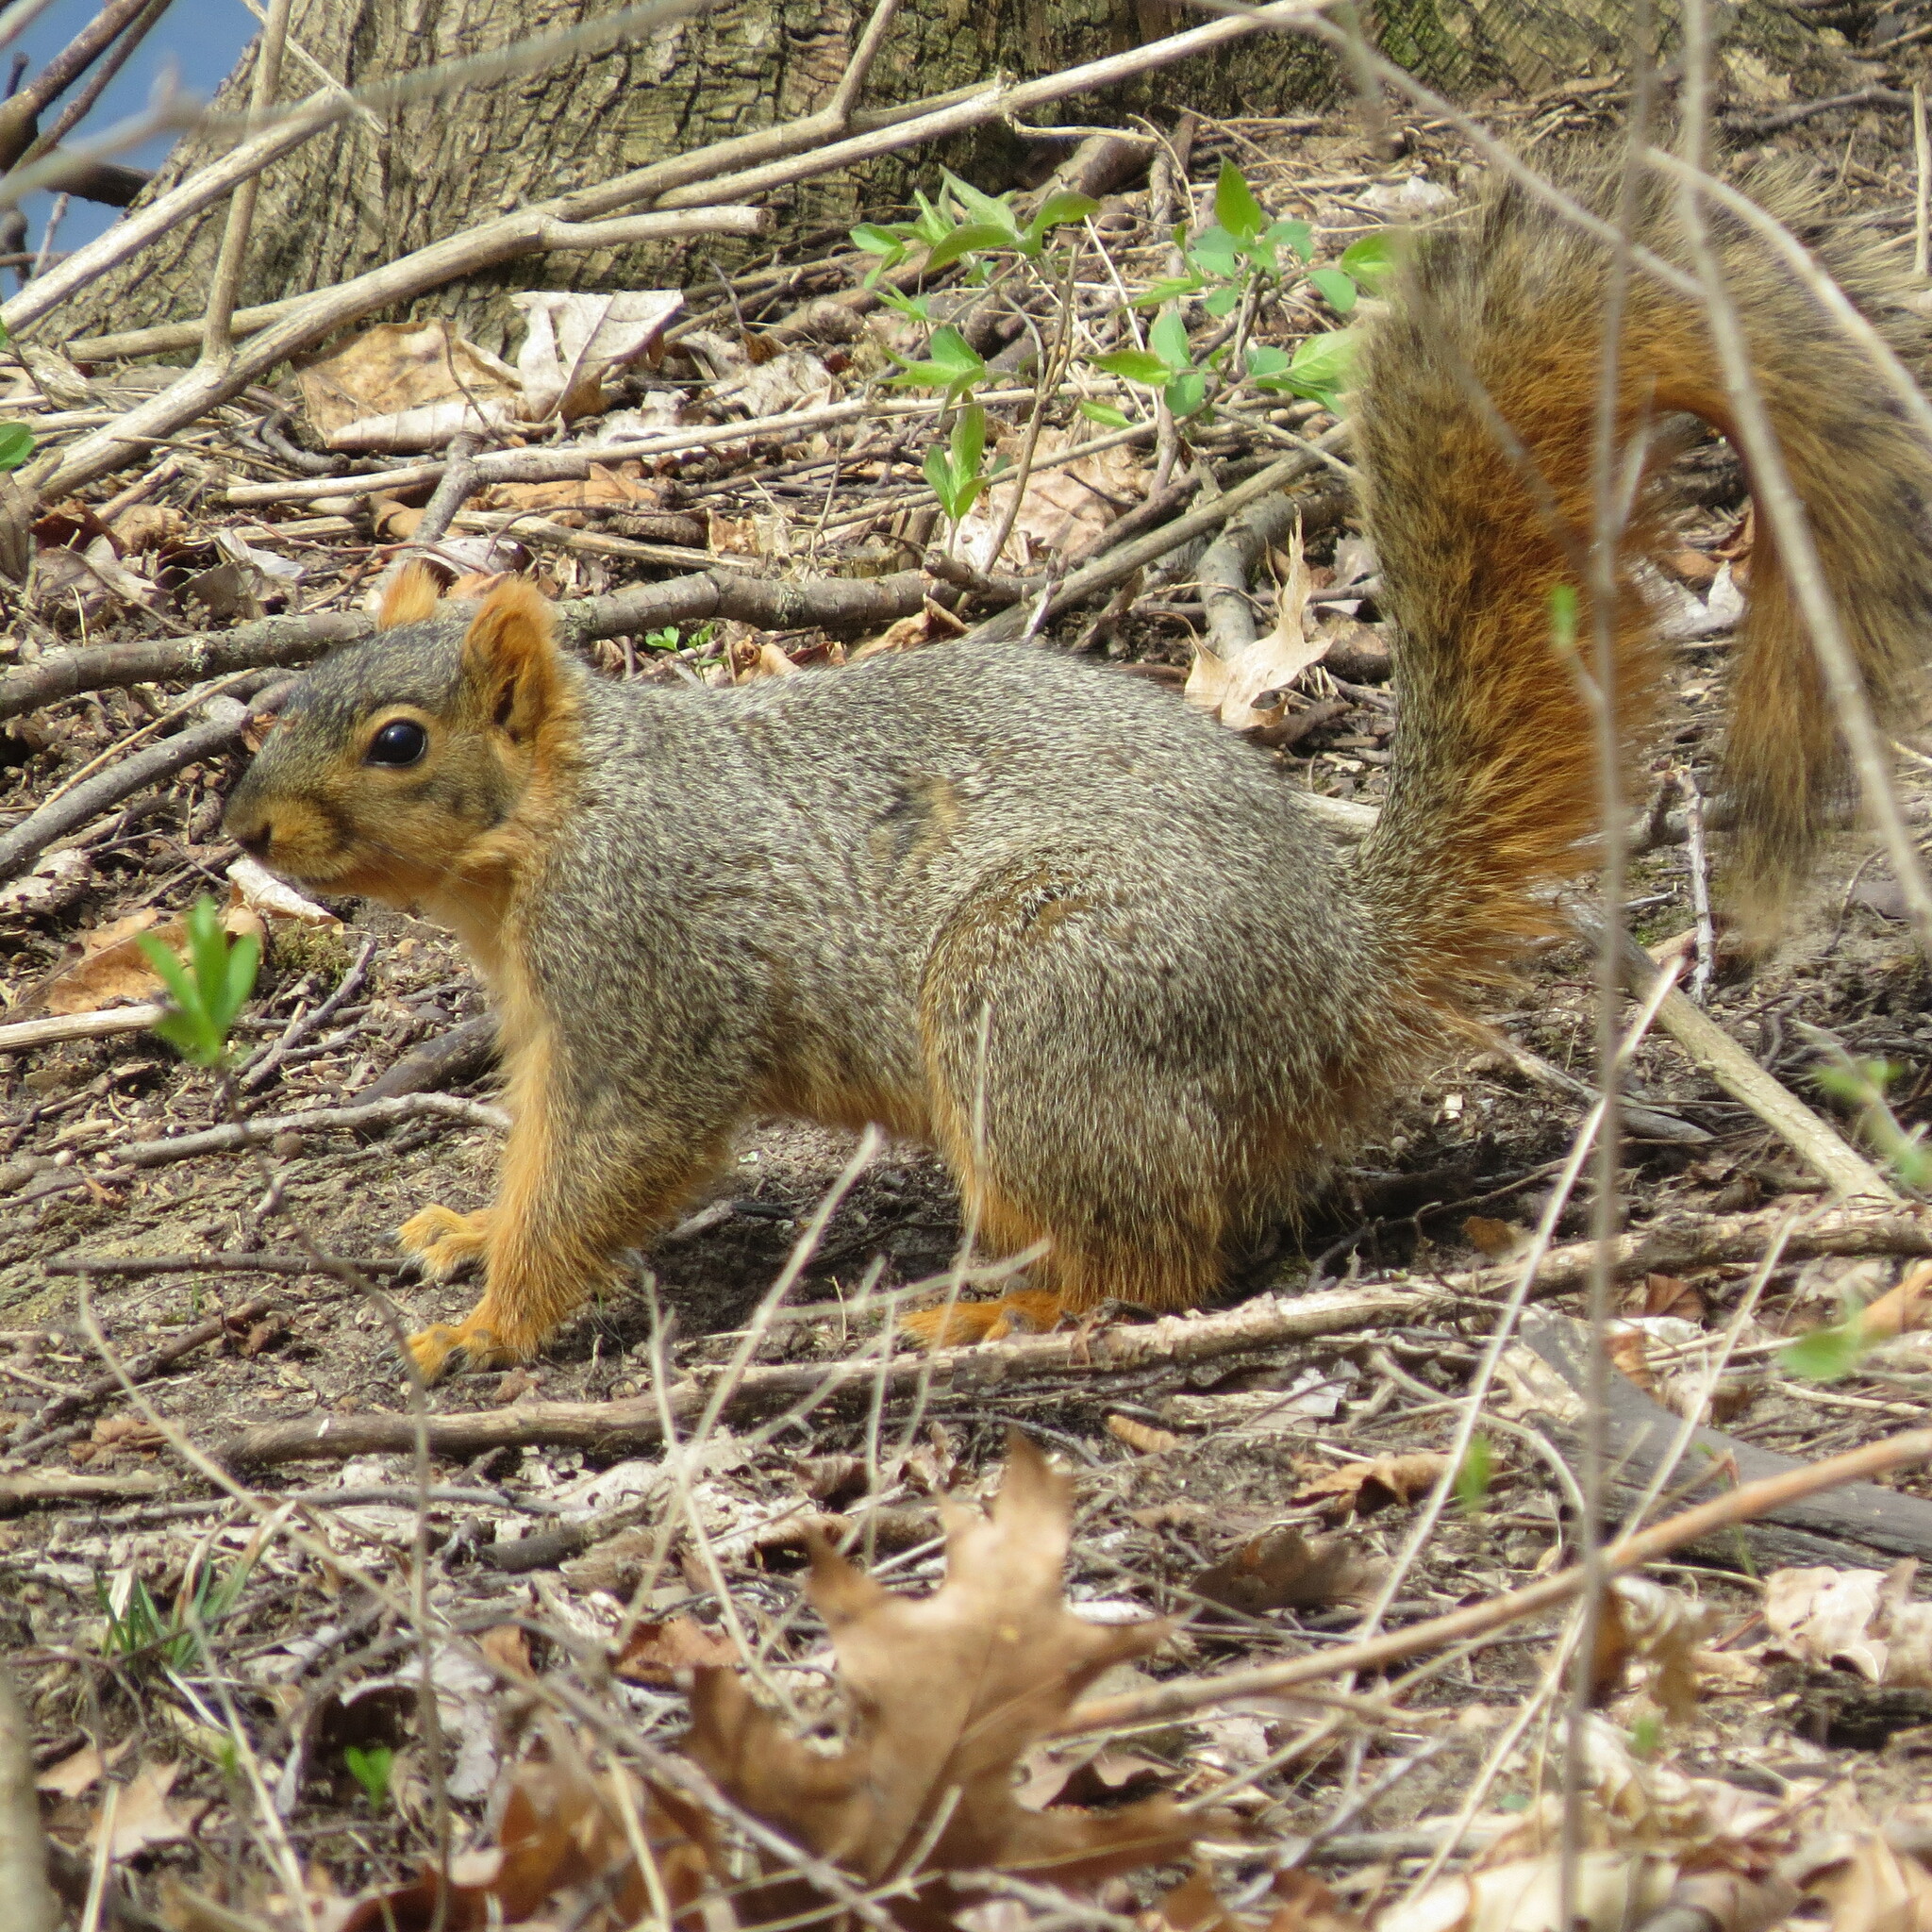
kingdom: Animalia
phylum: Chordata
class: Mammalia
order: Rodentia
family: Sciuridae
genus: Sciurus
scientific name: Sciurus niger
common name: Fox squirrel
